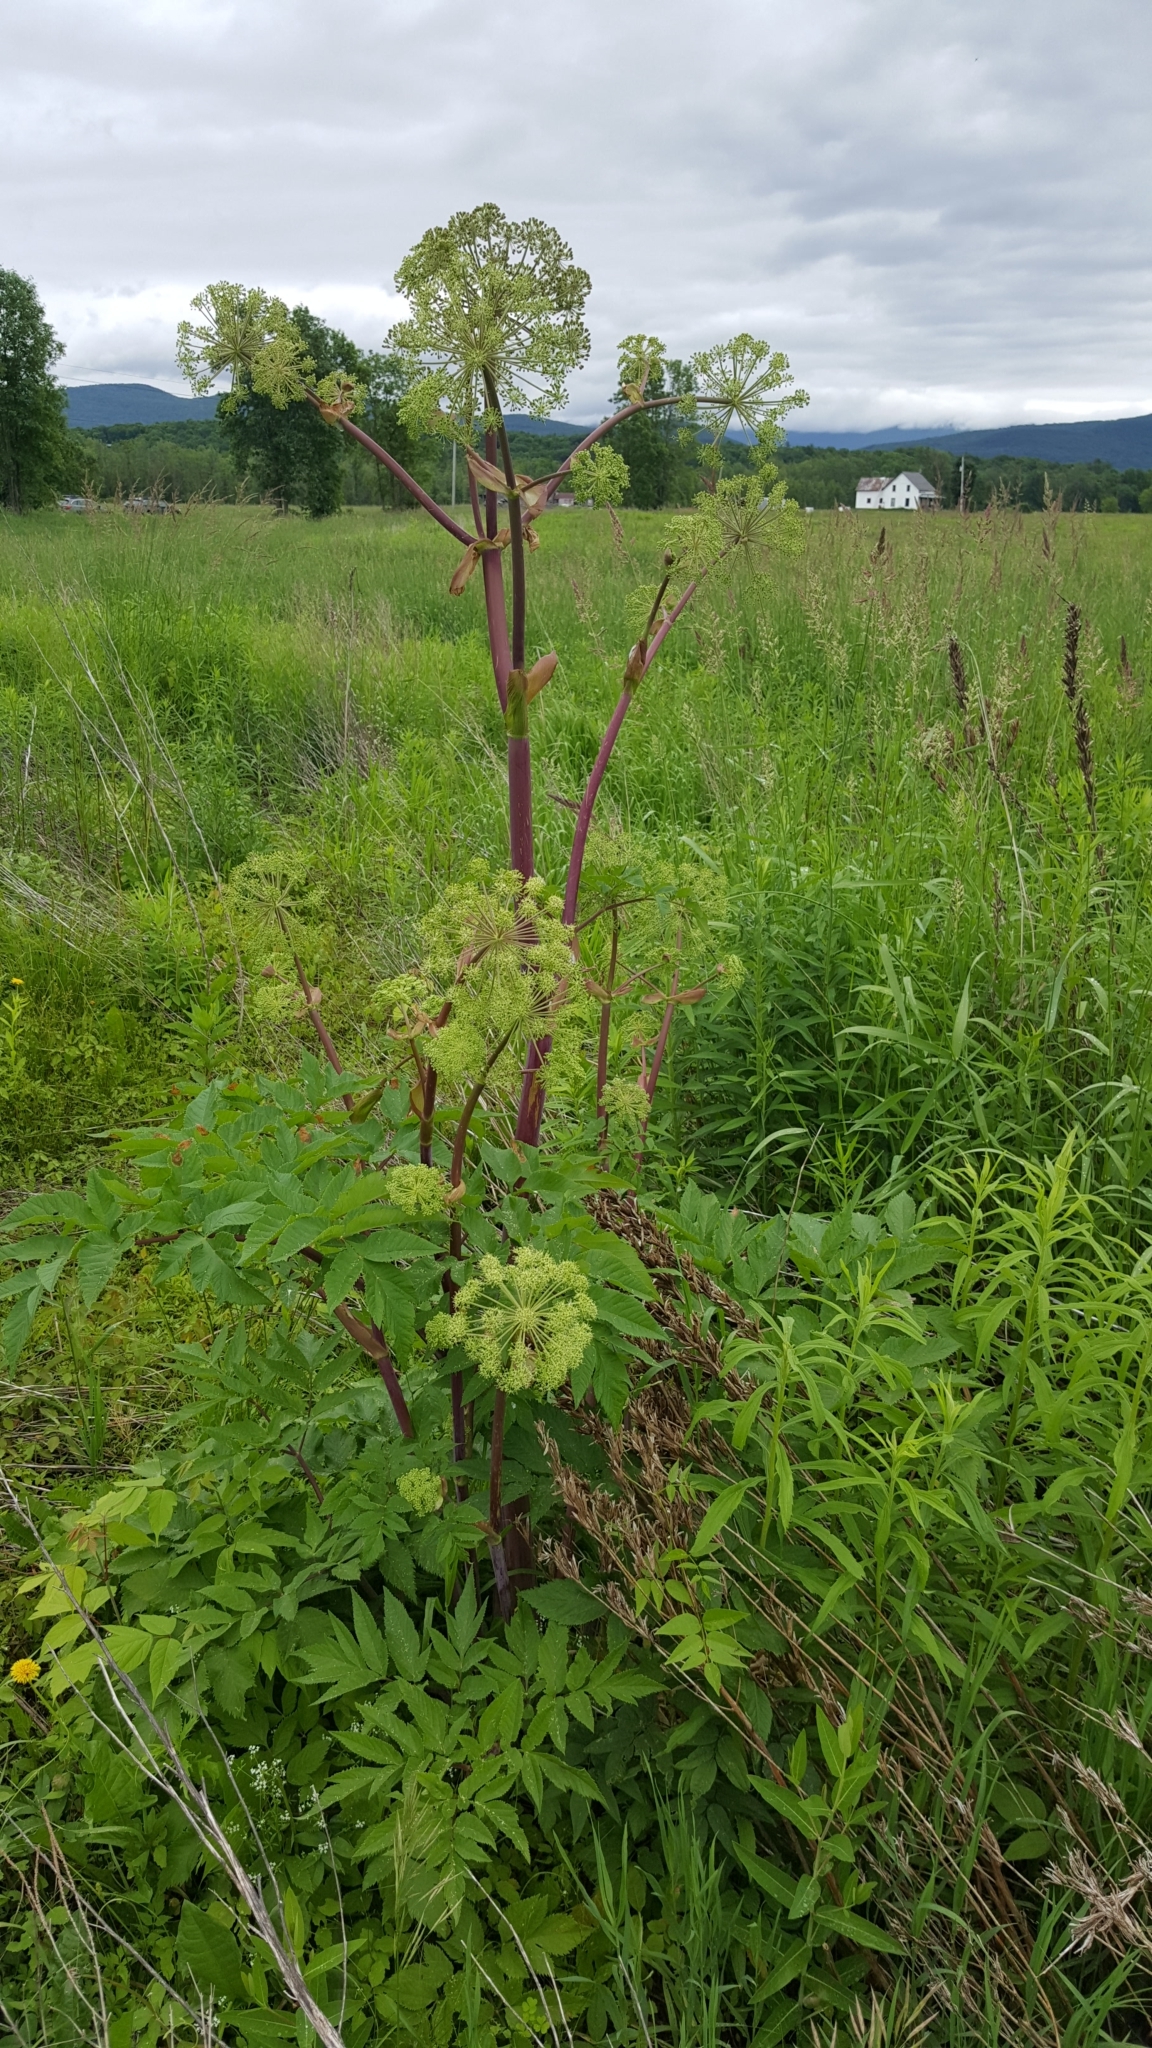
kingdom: Plantae
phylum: Tracheophyta
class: Magnoliopsida
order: Apiales
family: Apiaceae
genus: Angelica
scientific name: Angelica atropurpurea
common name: Great angelica
